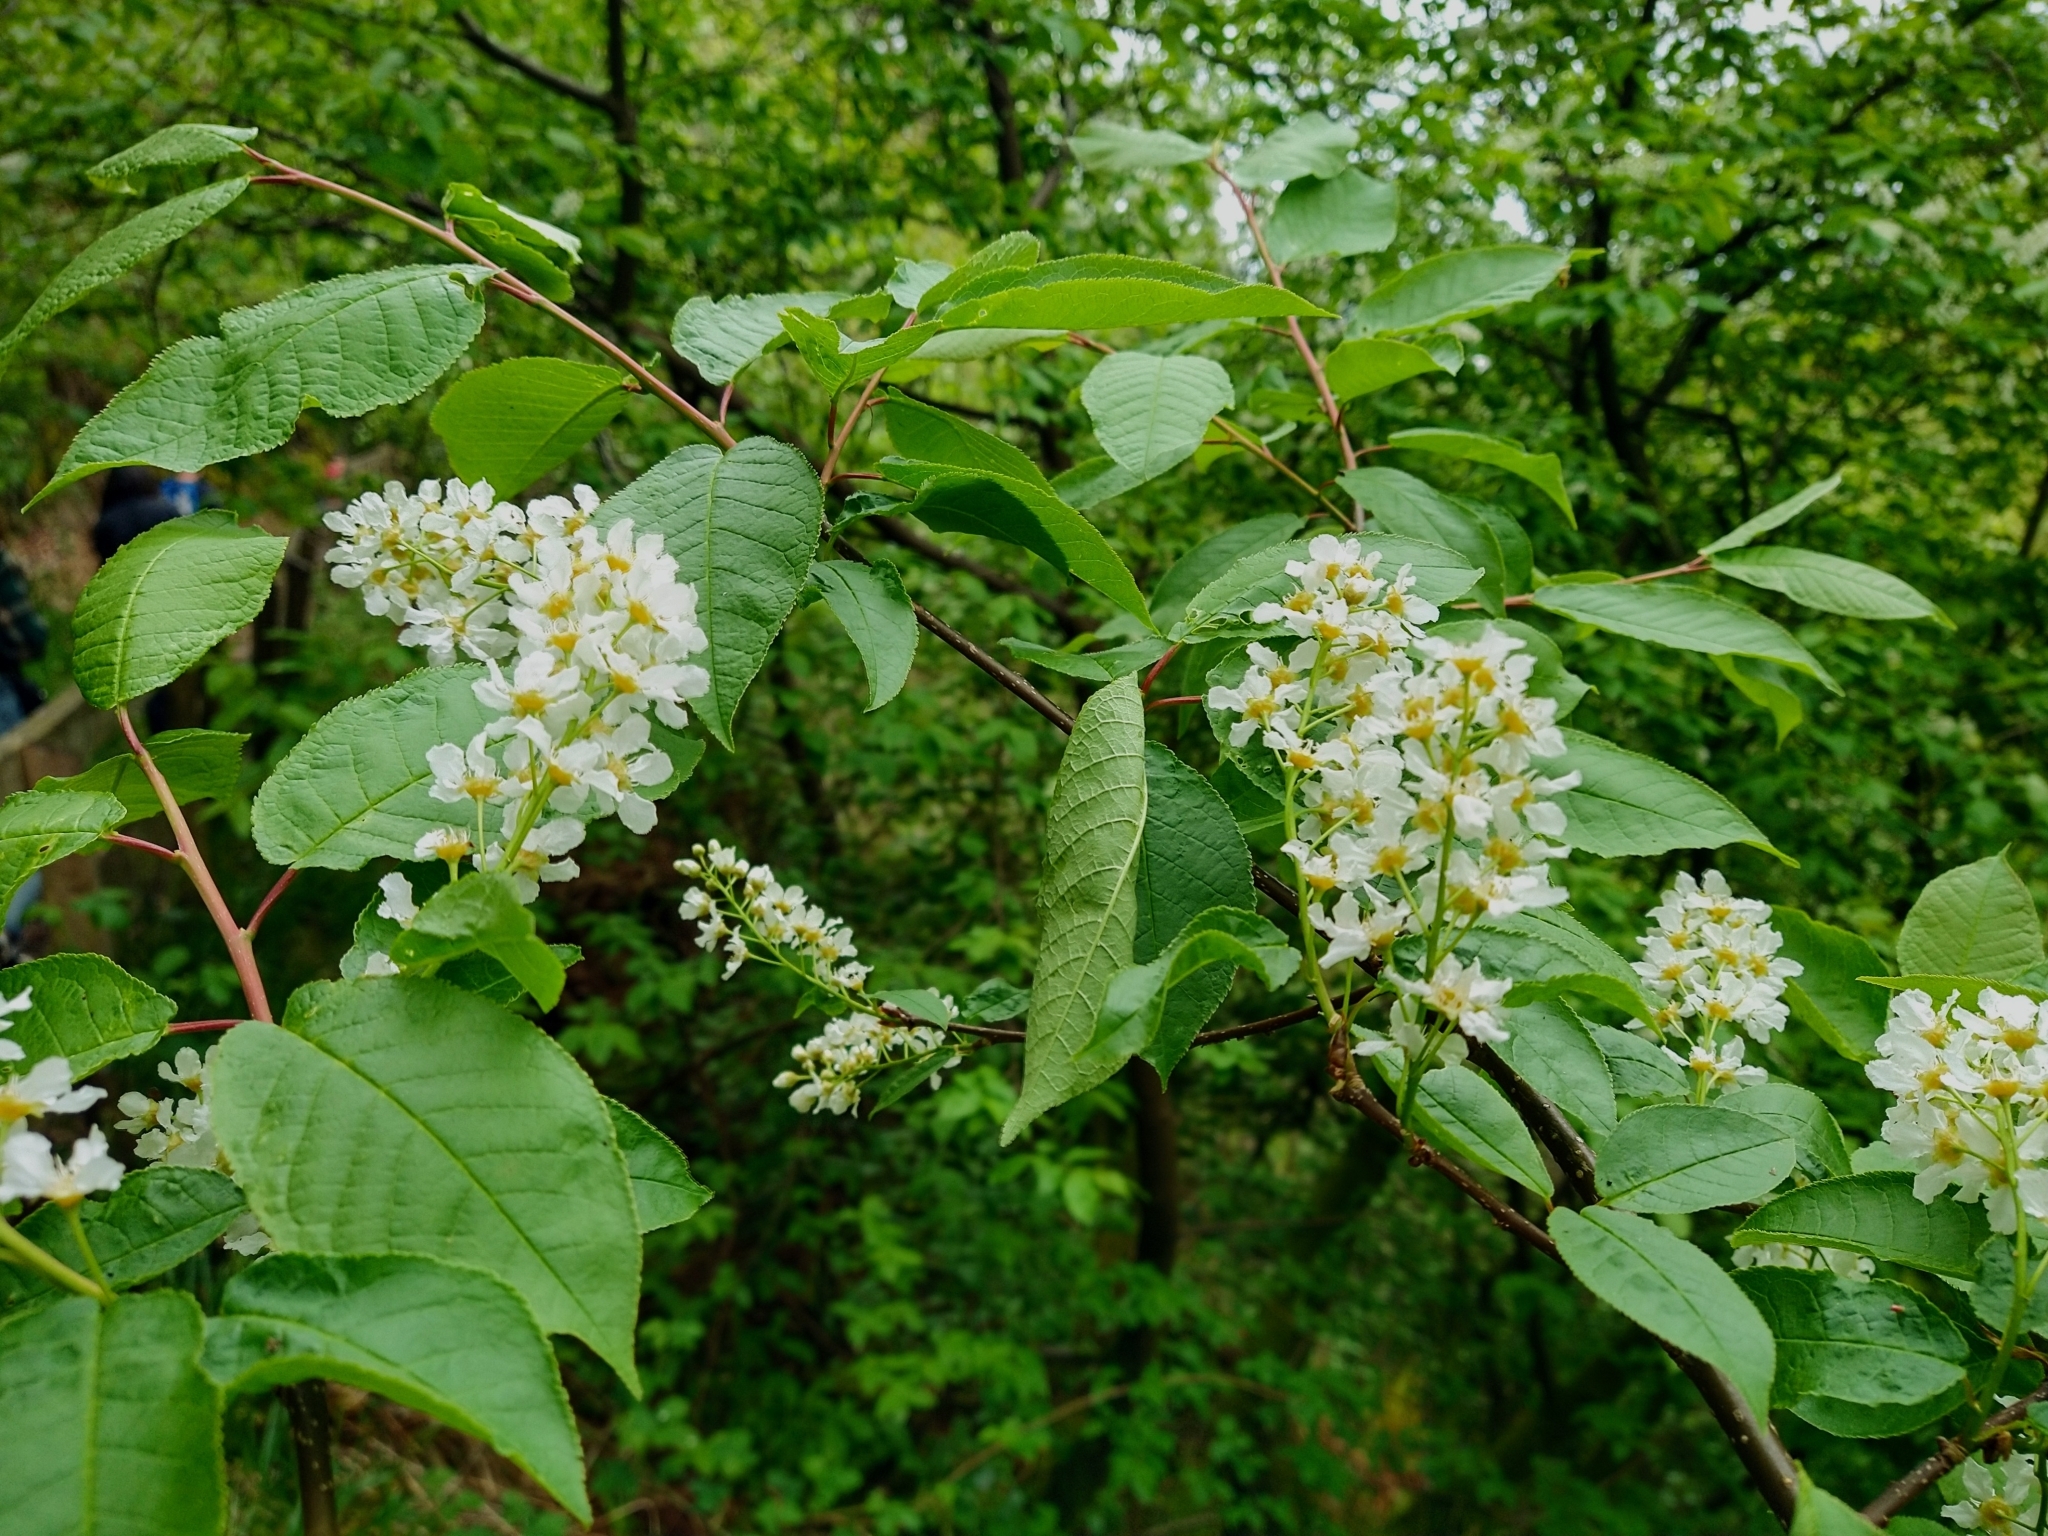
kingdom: Plantae
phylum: Tracheophyta
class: Magnoliopsida
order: Rosales
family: Rosaceae
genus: Prunus
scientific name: Prunus padus
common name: Bird cherry
